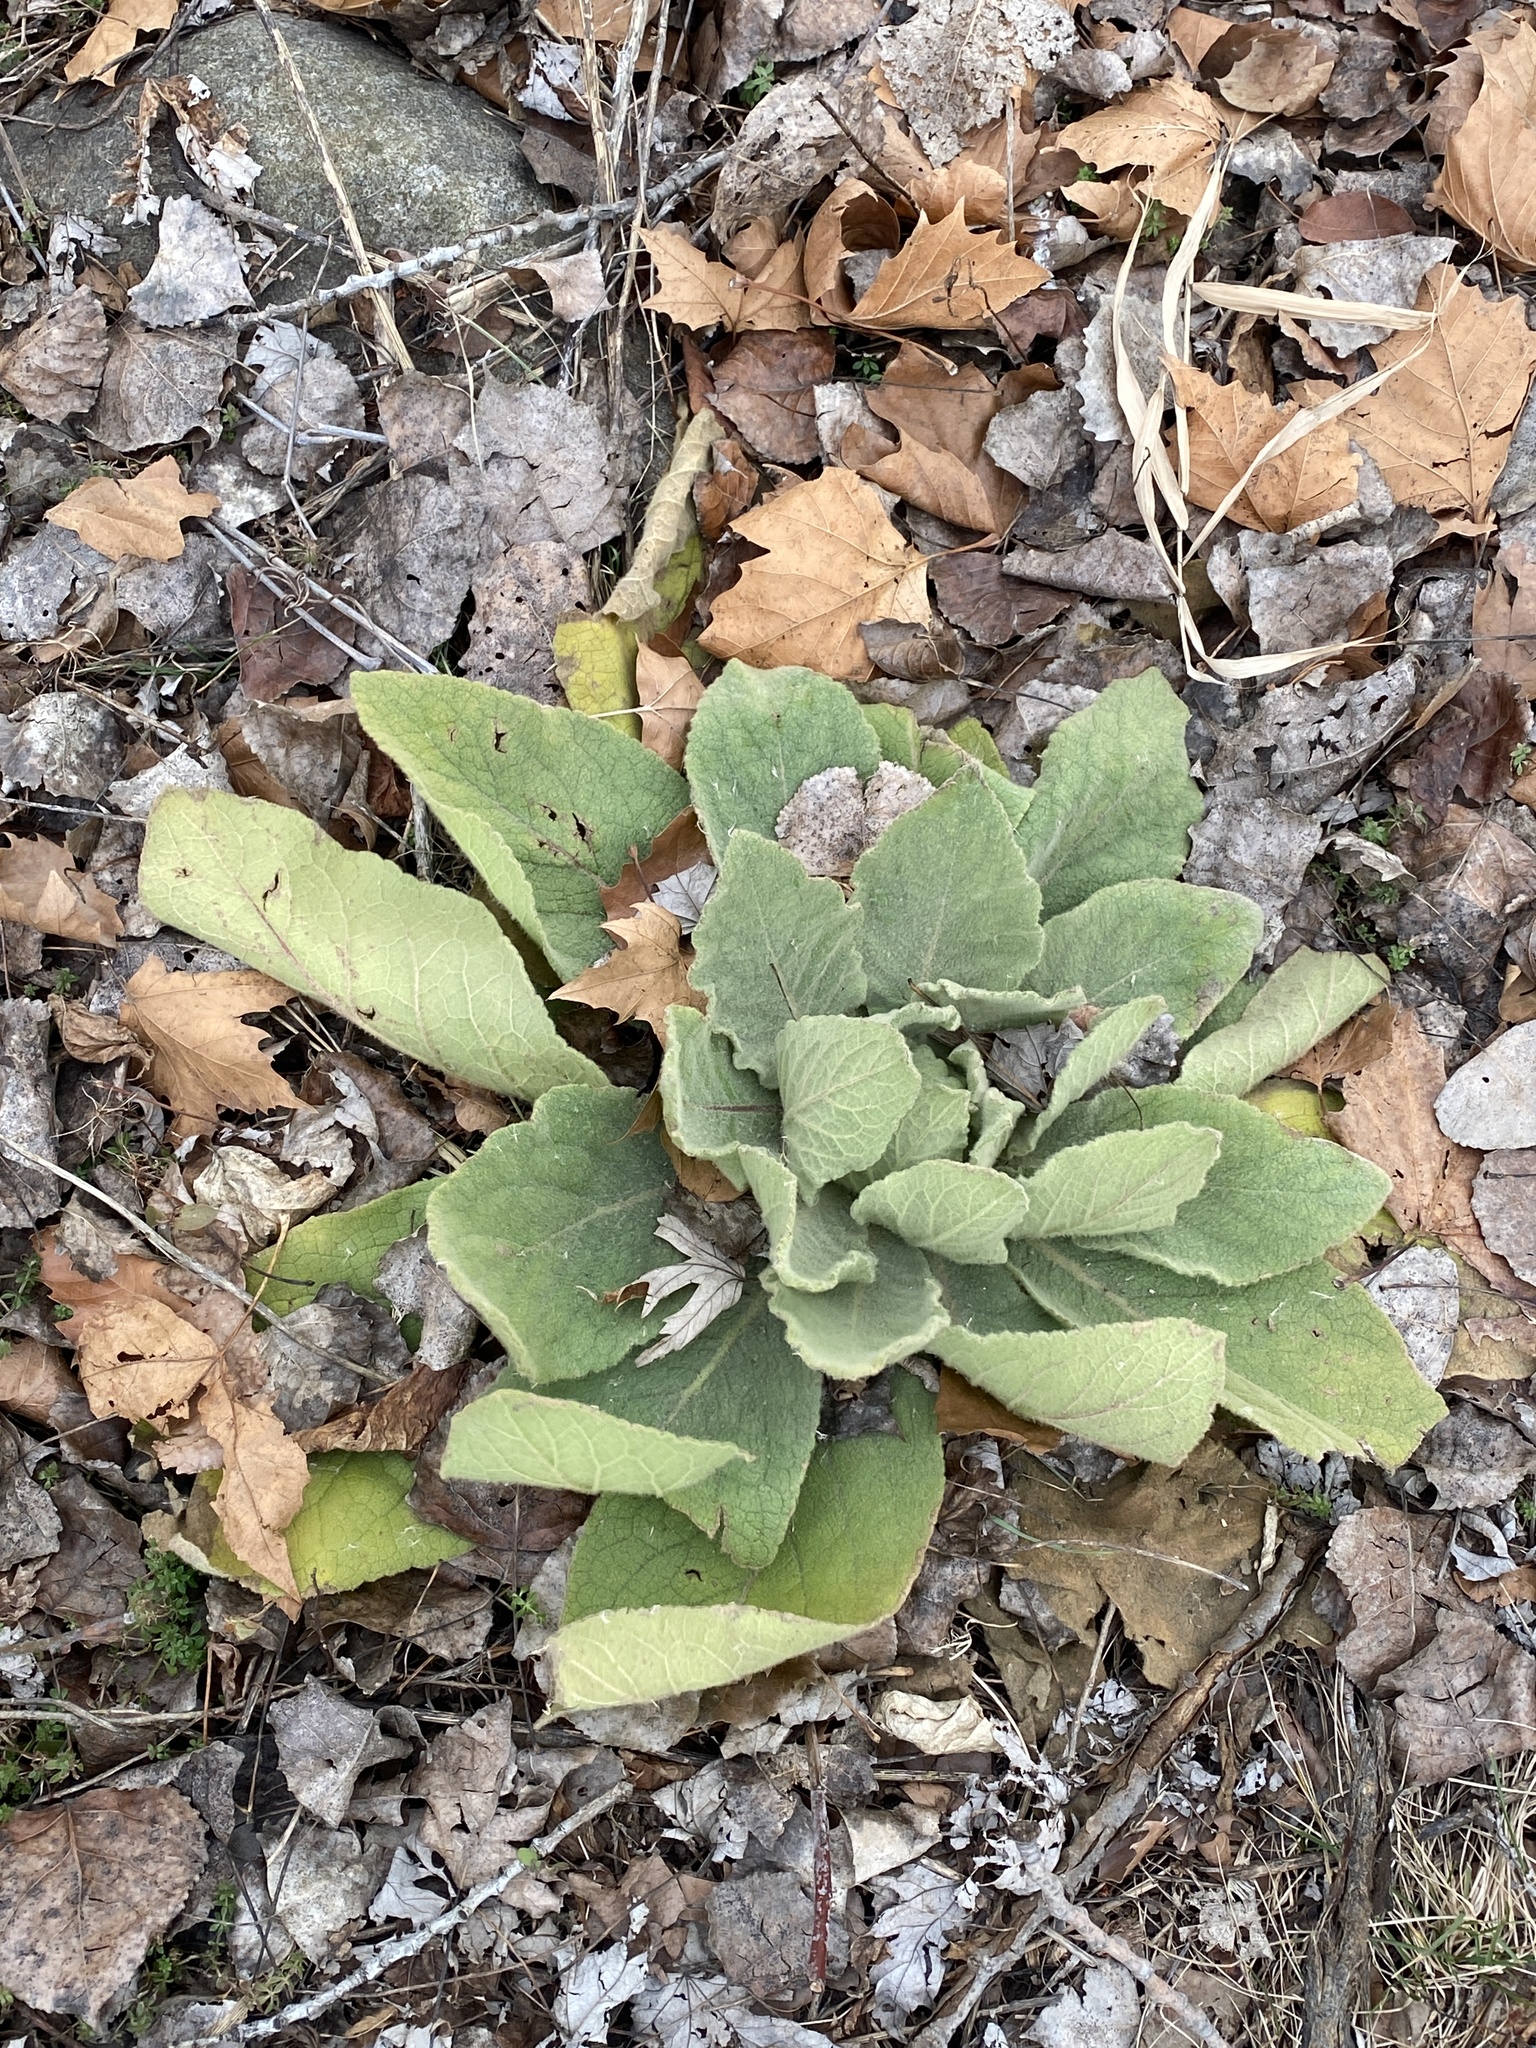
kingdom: Plantae
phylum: Tracheophyta
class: Magnoliopsida
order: Lamiales
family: Scrophulariaceae
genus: Verbascum
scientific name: Verbascum thapsus
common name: Common mullein
